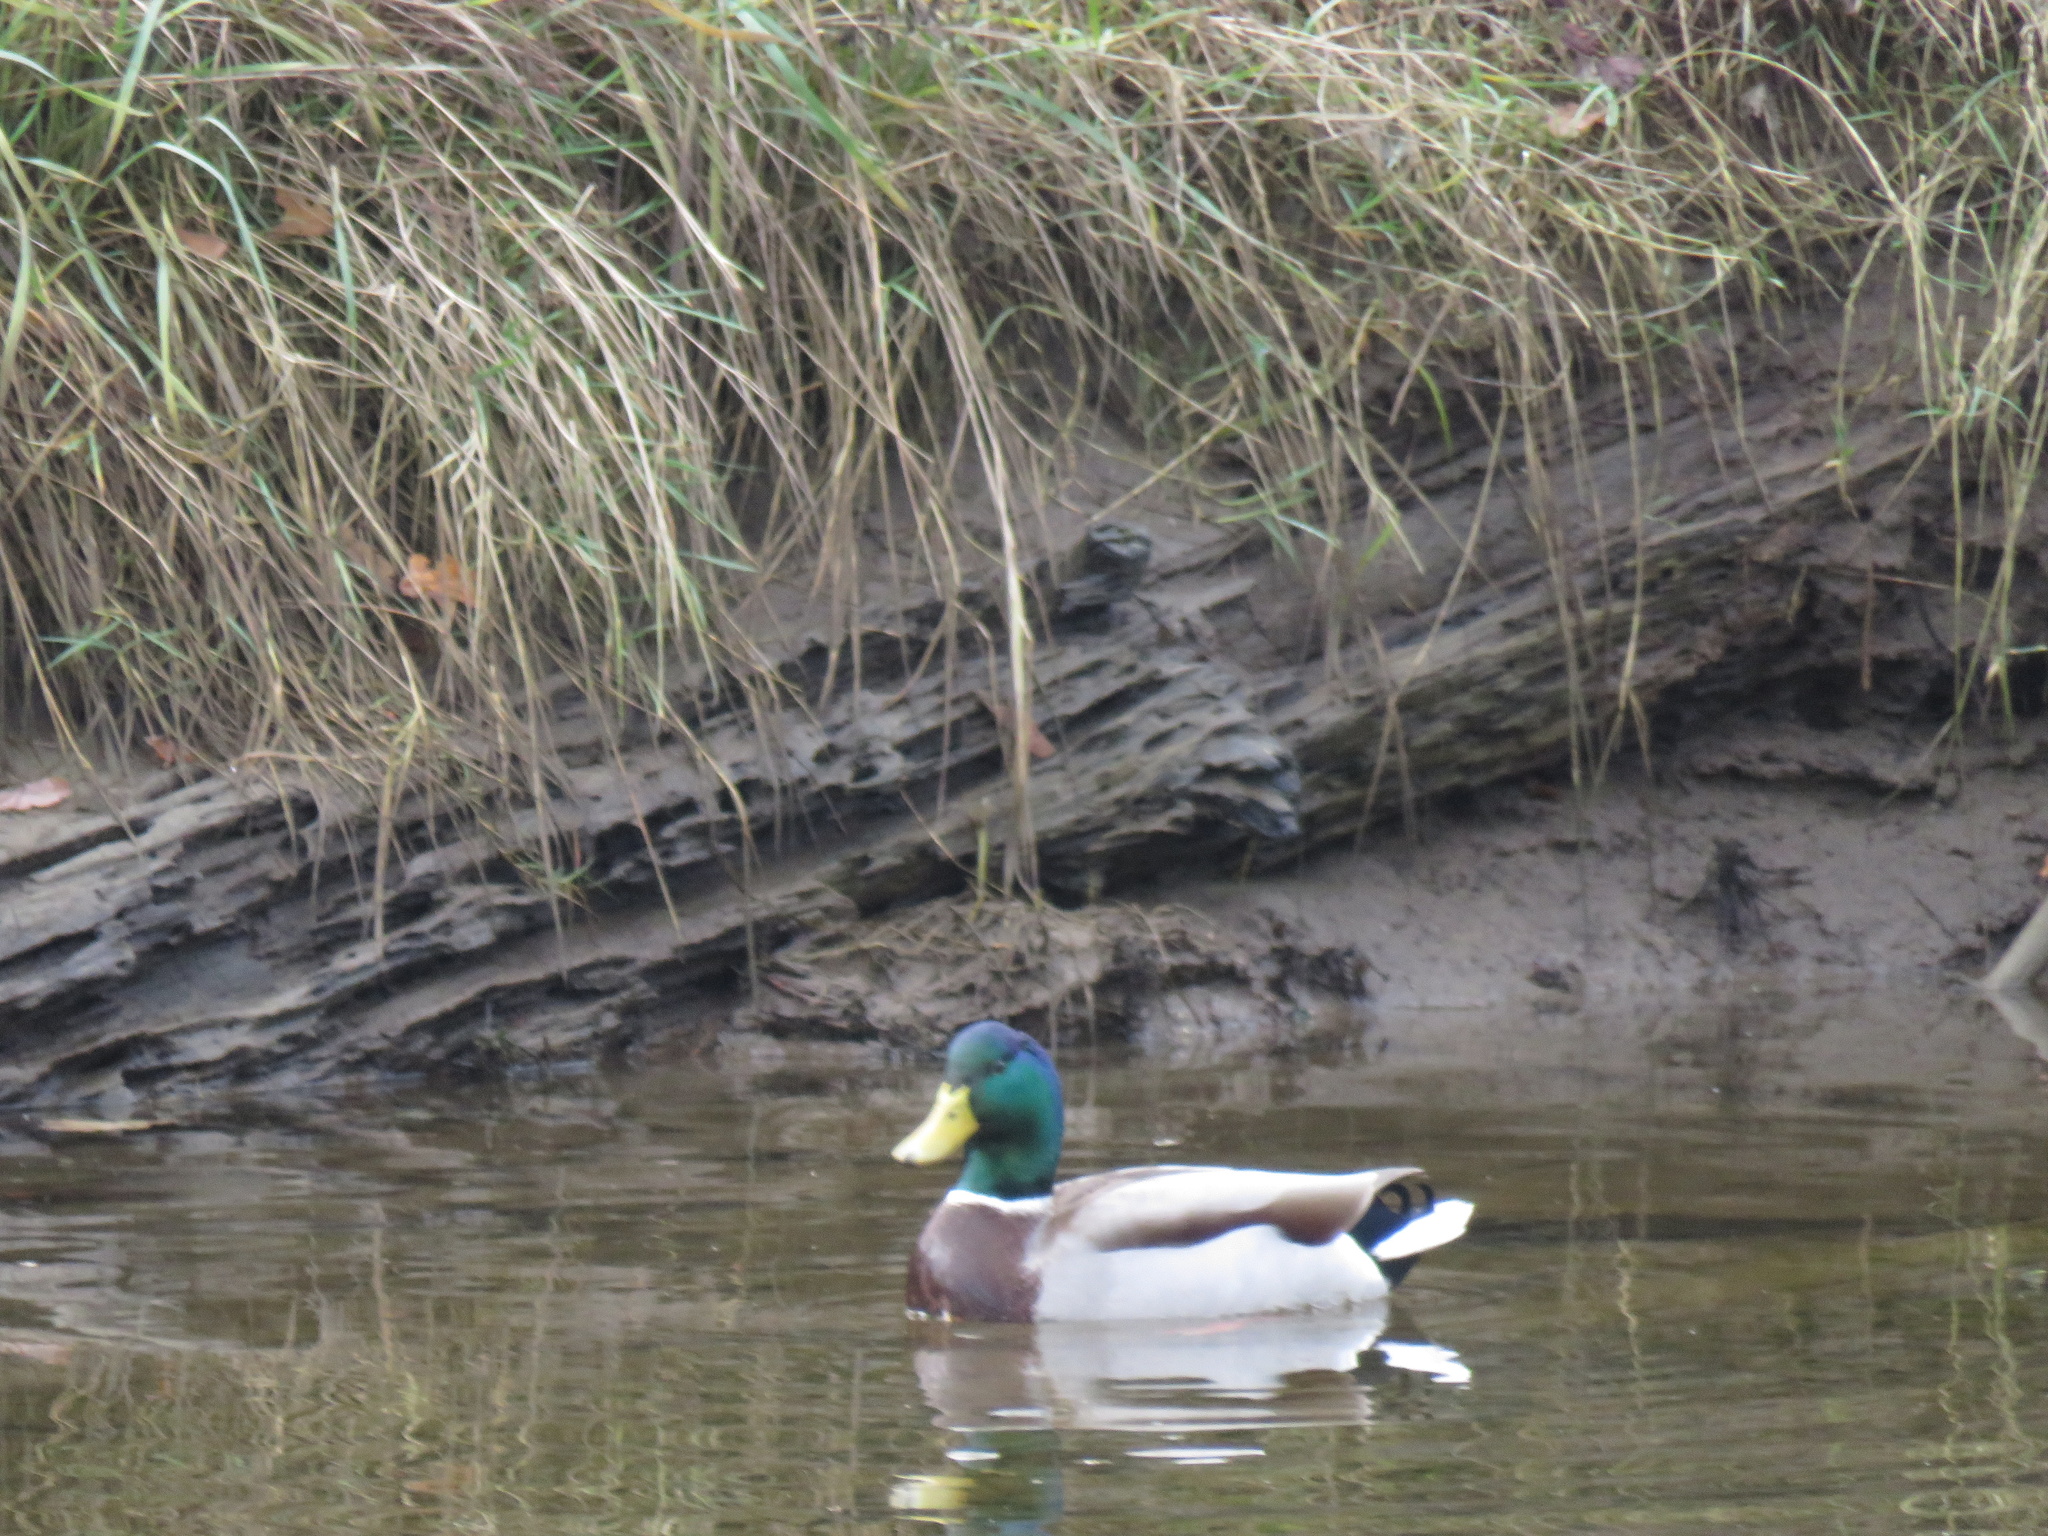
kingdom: Animalia
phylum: Chordata
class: Aves
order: Anseriformes
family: Anatidae
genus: Anas
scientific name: Anas platyrhynchos
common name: Mallard
